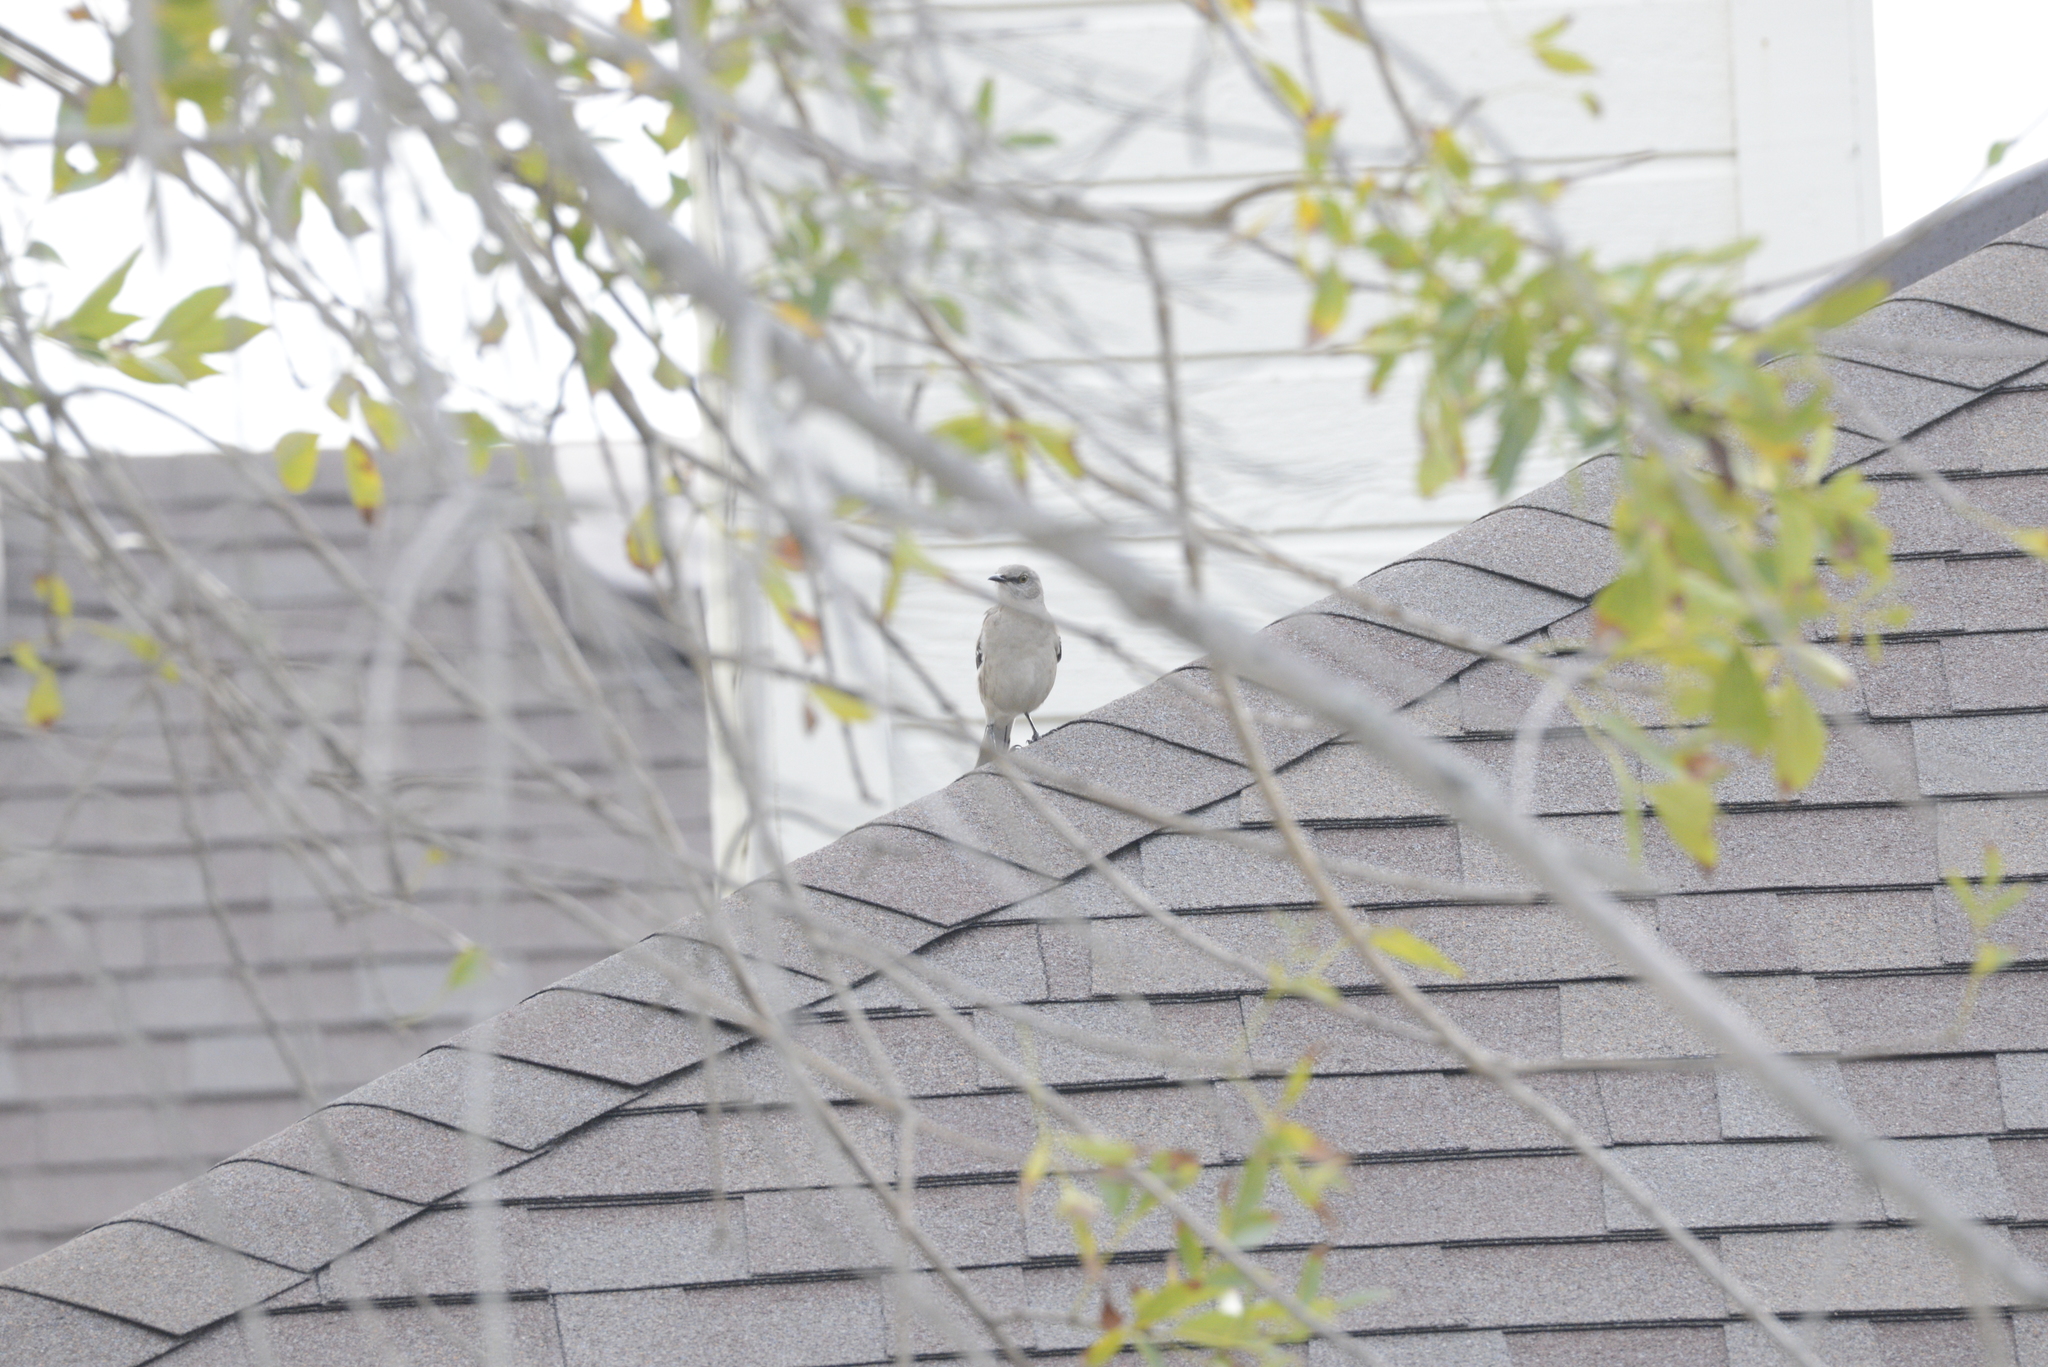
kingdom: Animalia
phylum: Chordata
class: Aves
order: Passeriformes
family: Mimidae
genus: Mimus
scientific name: Mimus polyglottos
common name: Northern mockingbird
